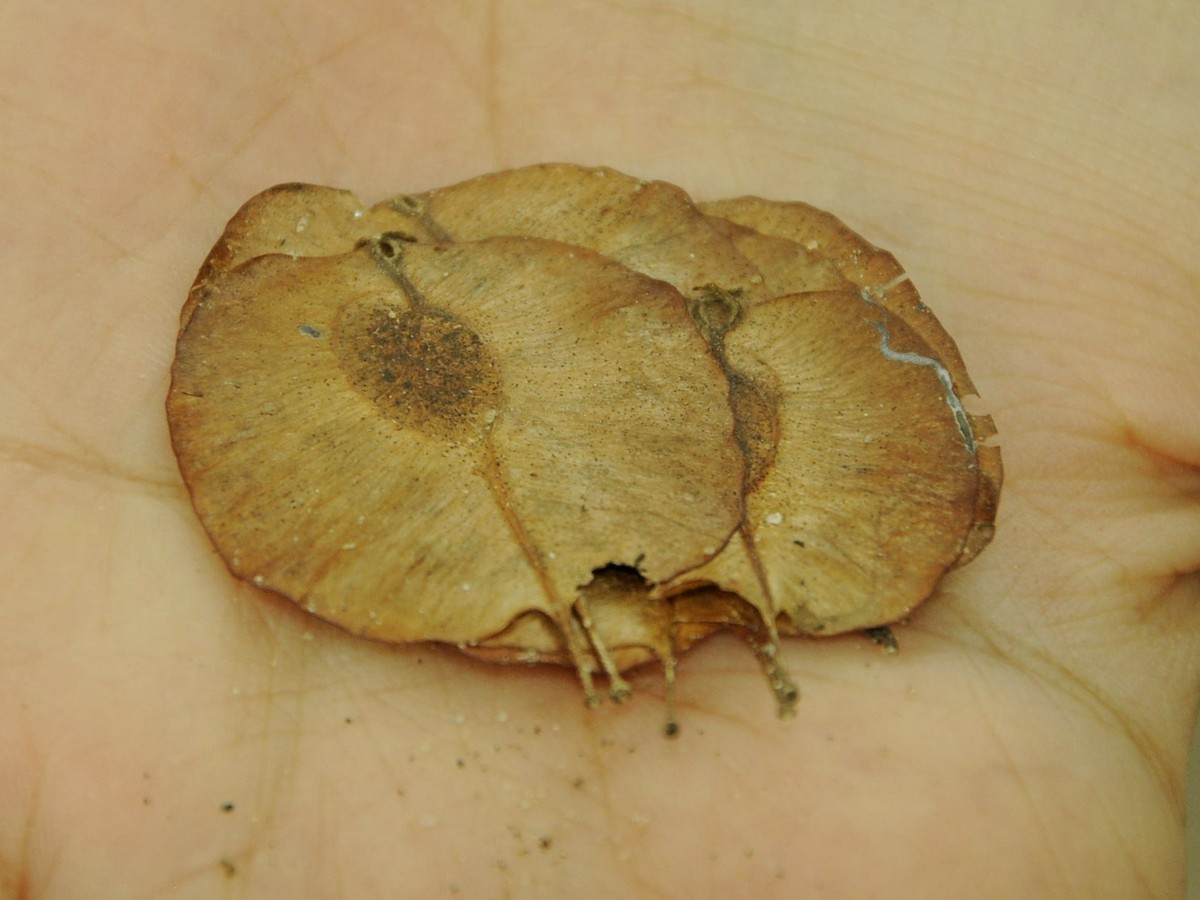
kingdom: Plantae
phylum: Tracheophyta
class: Magnoliopsida
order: Rosales
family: Ulmaceae
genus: Holoptelea
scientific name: Holoptelea integrifolia
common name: Indian-elm
